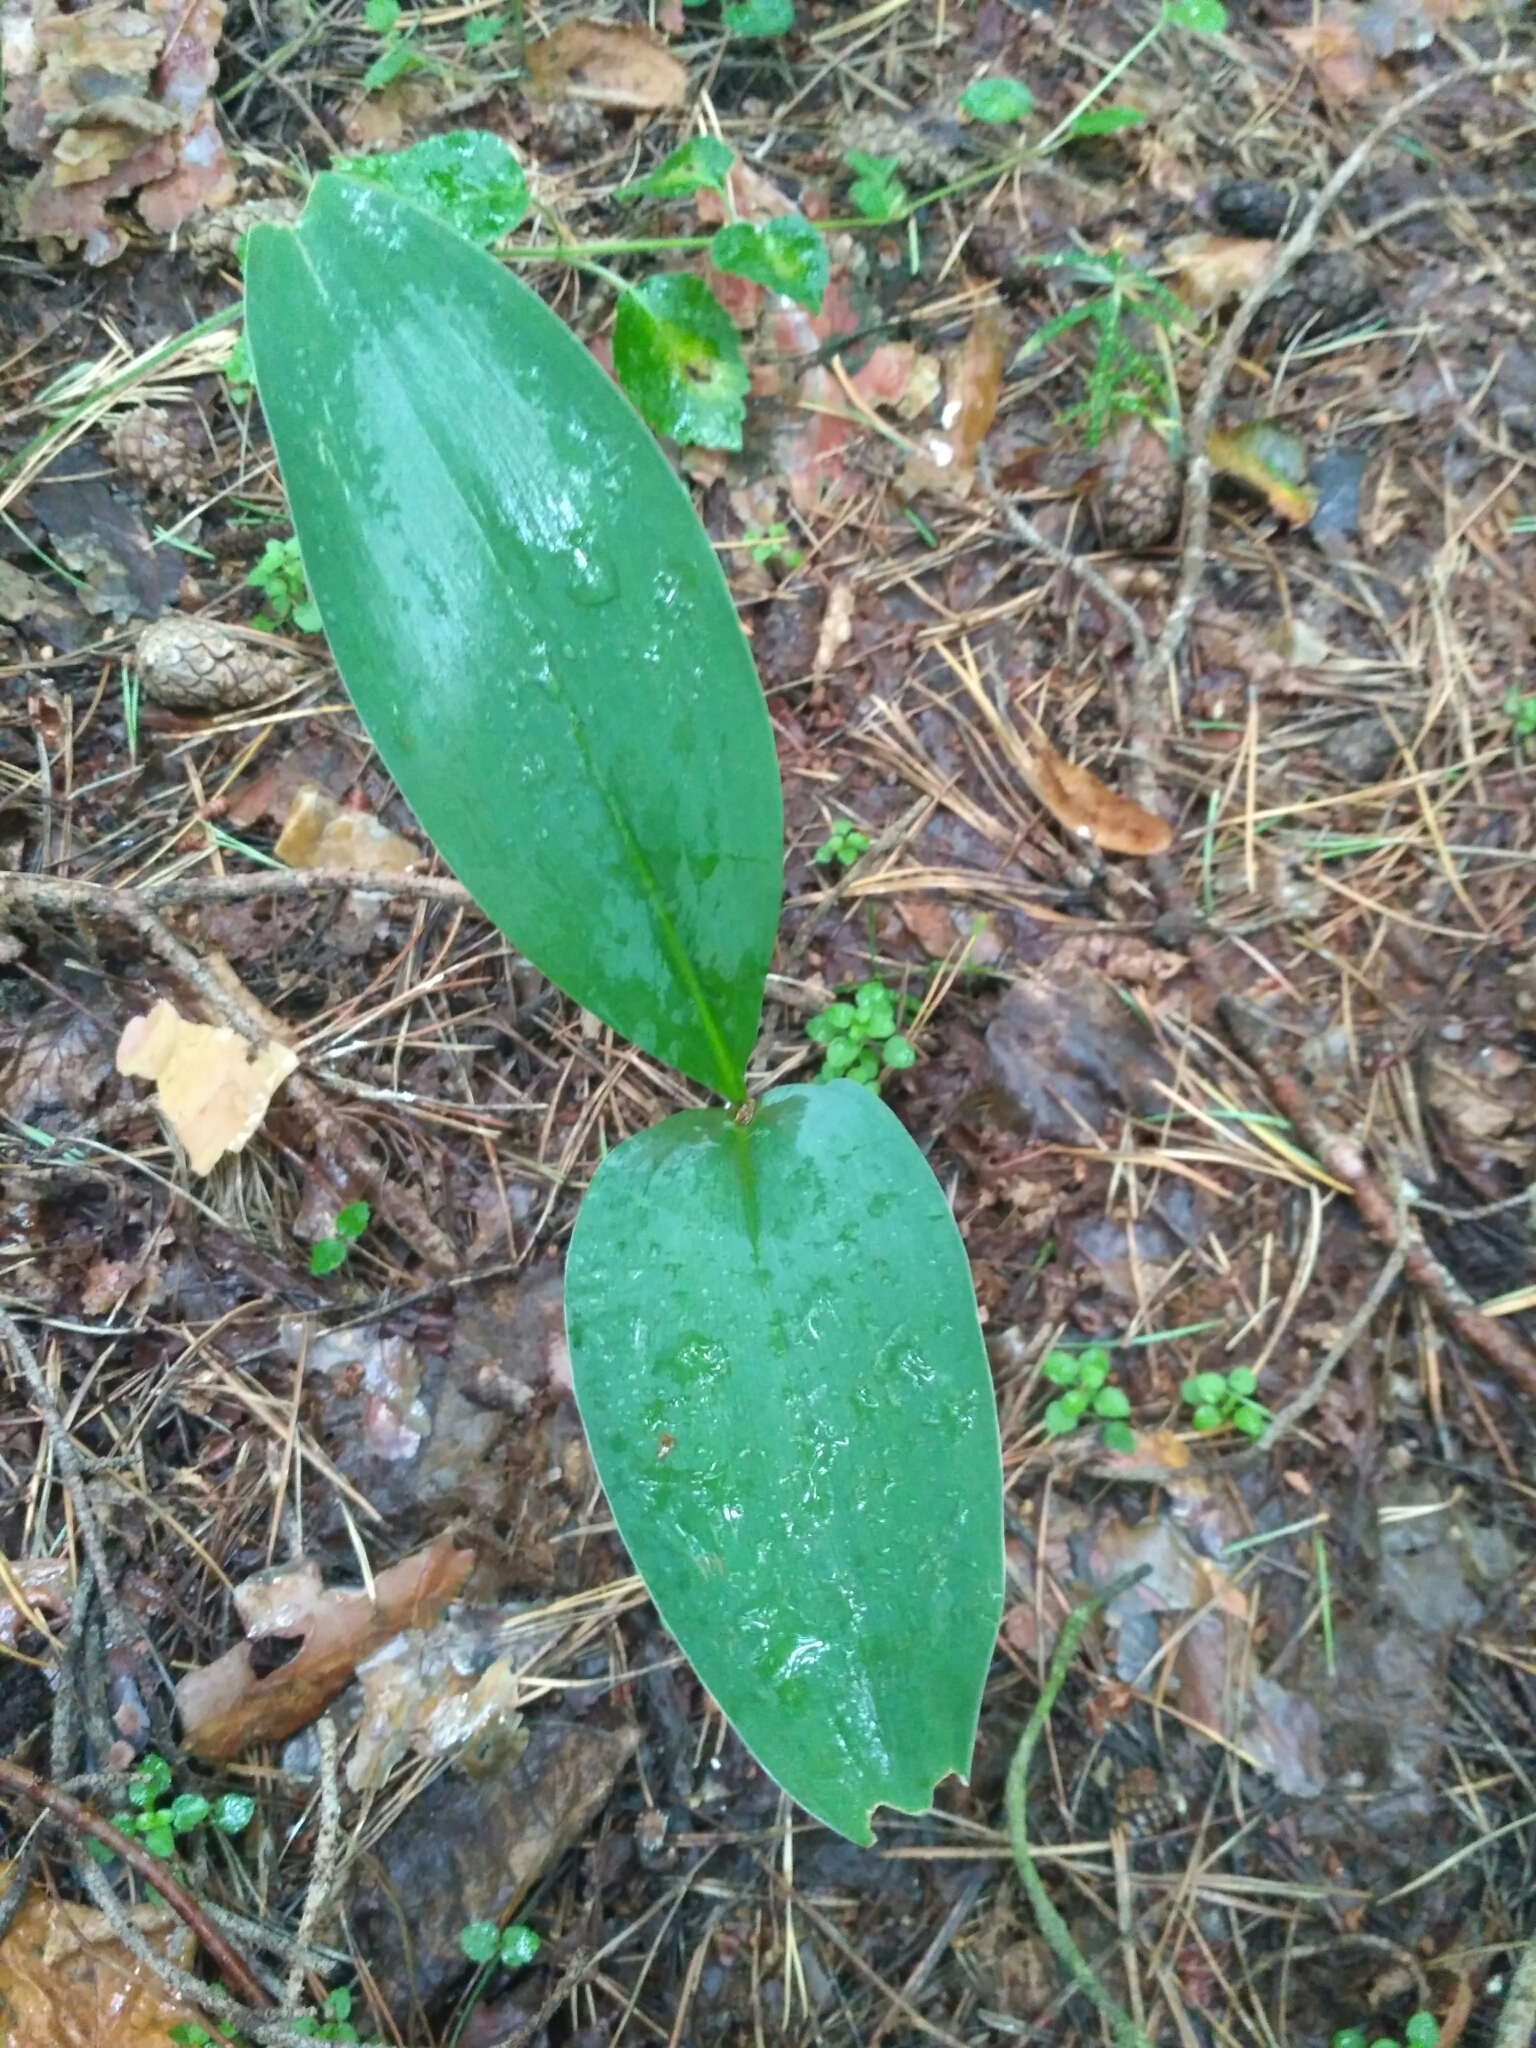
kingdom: Plantae
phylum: Tracheophyta
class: Liliopsida
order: Asparagales
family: Asparagaceae
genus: Convallaria
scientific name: Convallaria majalis
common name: Lily-of-the-valley
